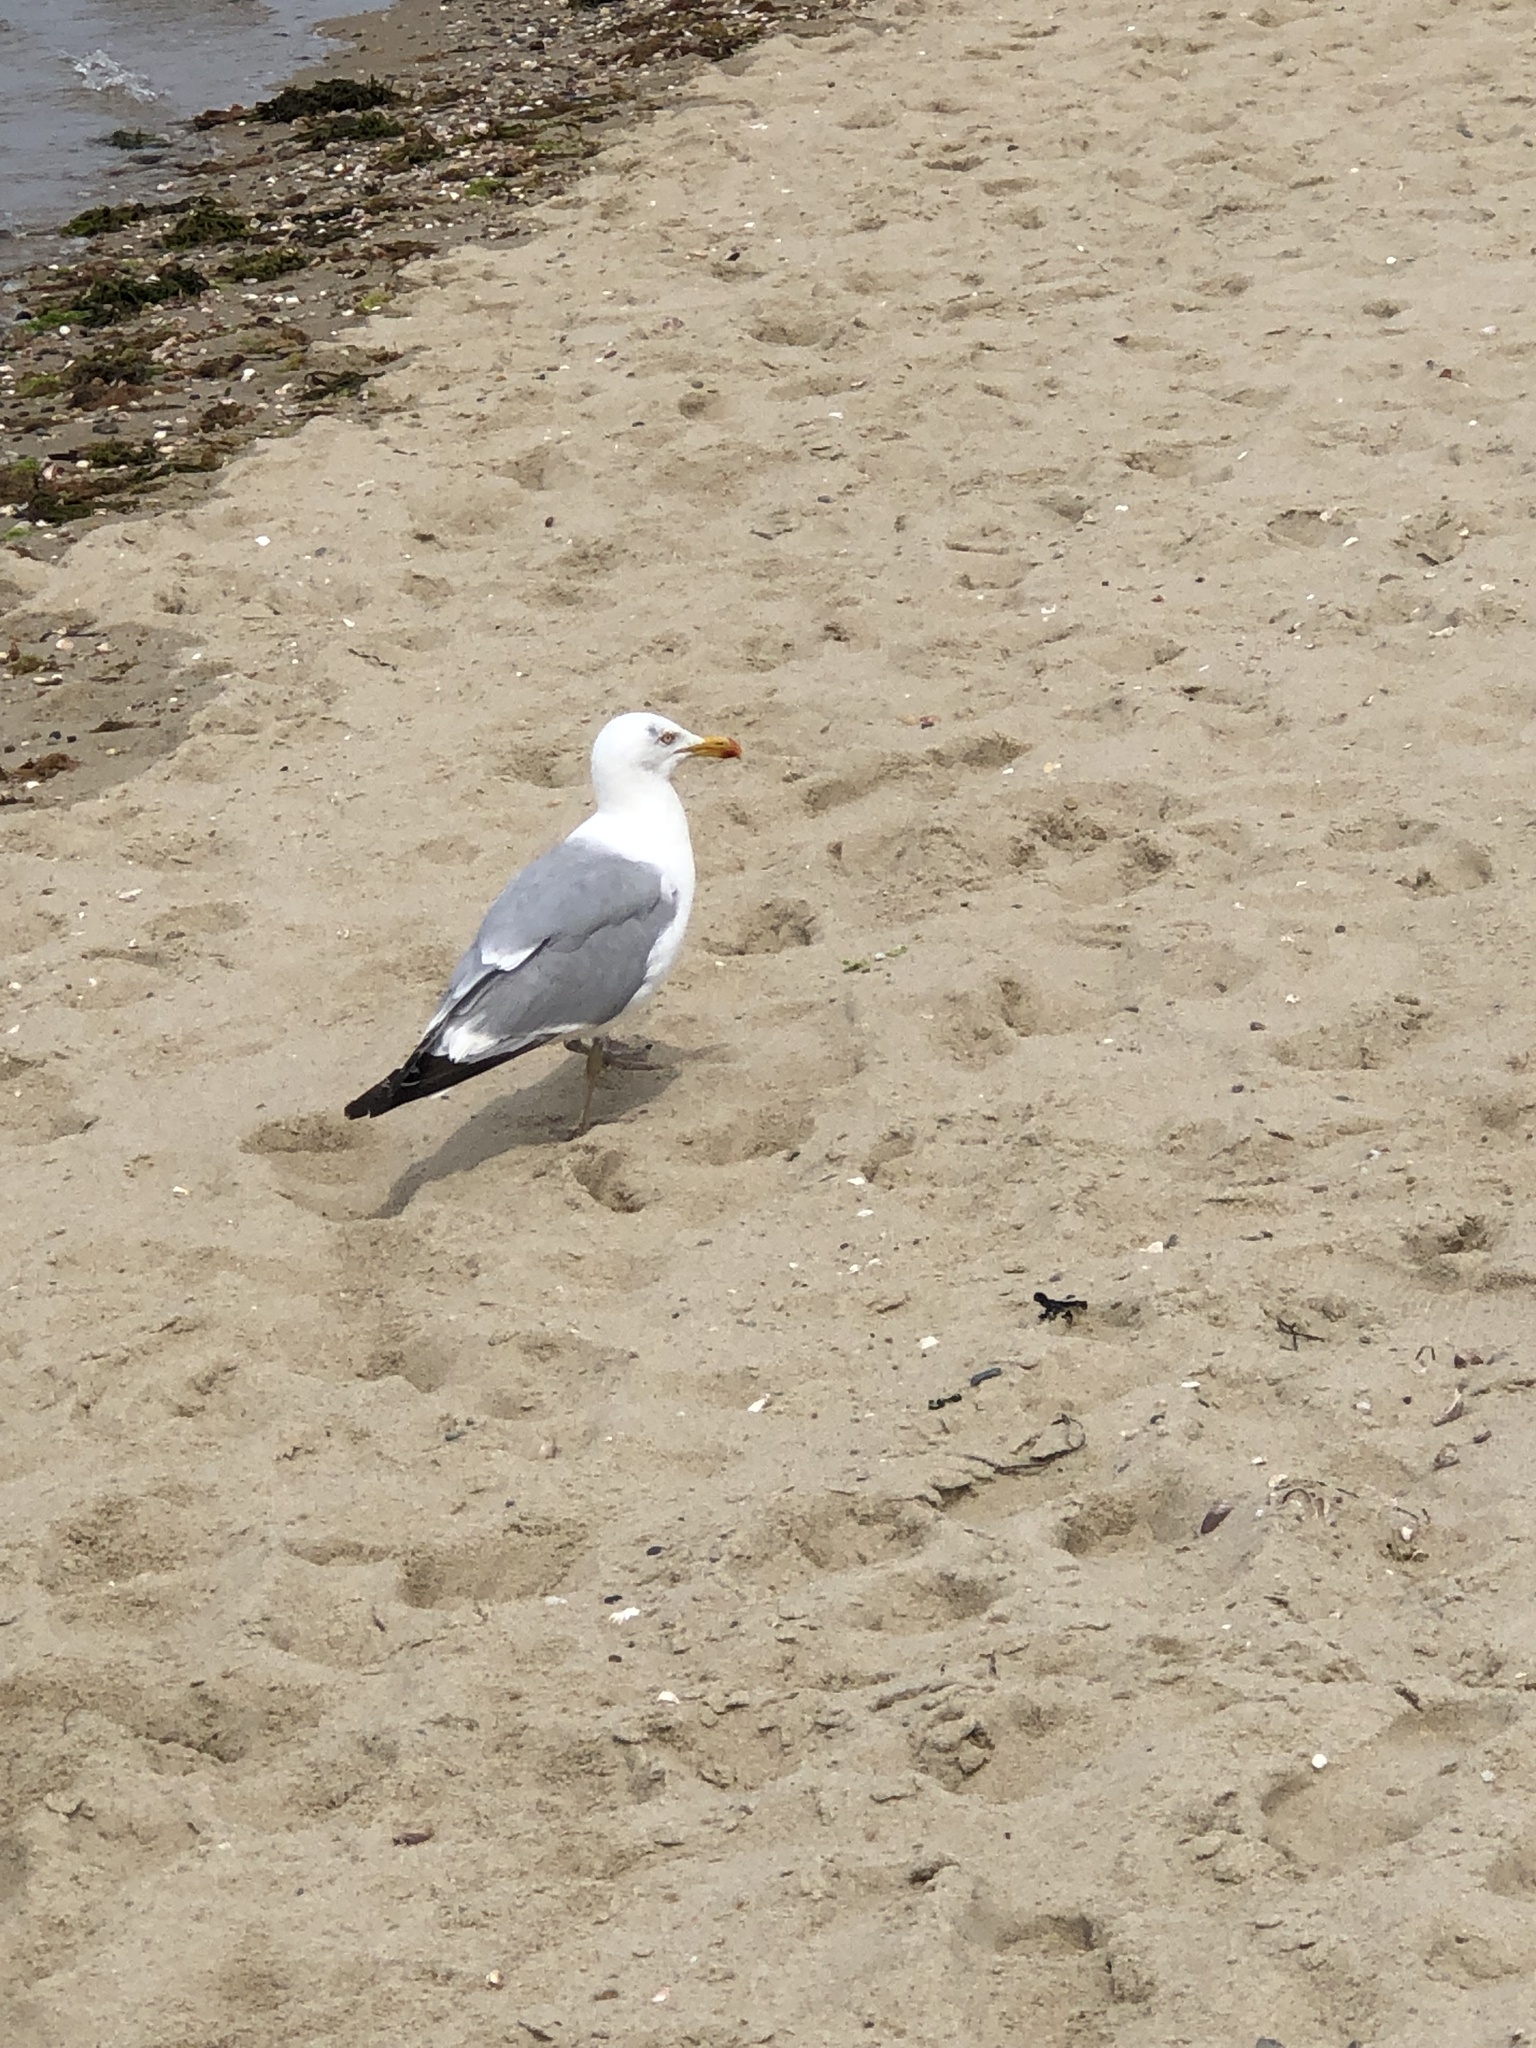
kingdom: Animalia
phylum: Chordata
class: Aves
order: Charadriiformes
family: Laridae
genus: Larus
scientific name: Larus argentatus
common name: Herring gull
